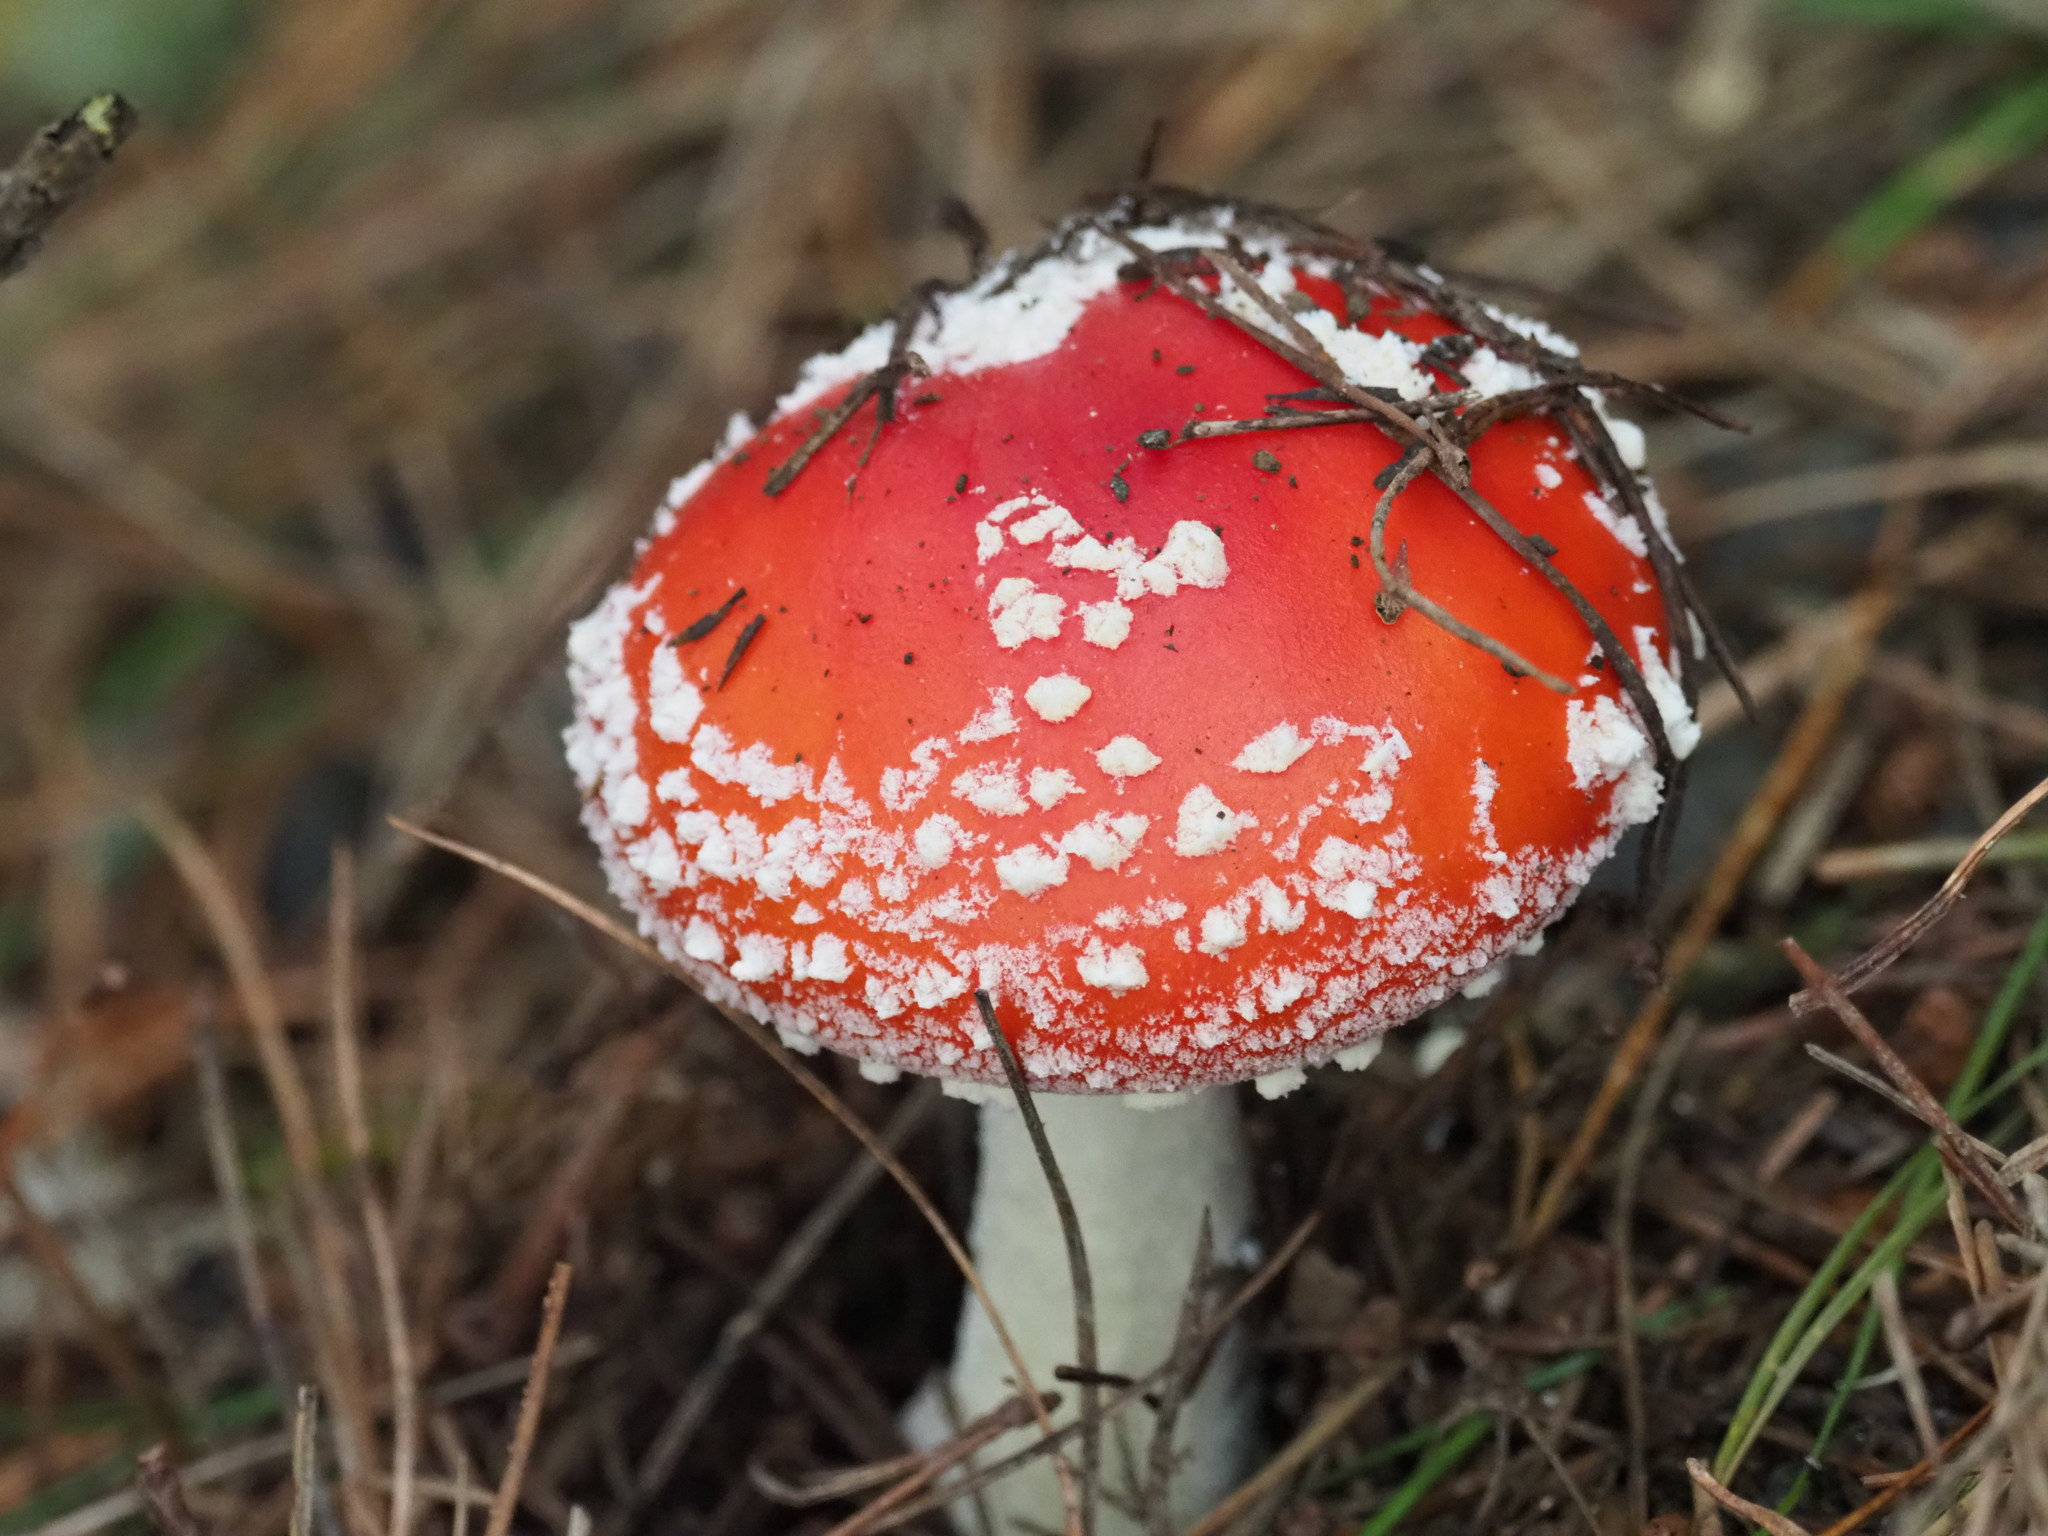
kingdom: Fungi
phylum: Basidiomycota
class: Agaricomycetes
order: Agaricales
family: Amanitaceae
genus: Amanita
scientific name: Amanita muscaria
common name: Fly agaric
